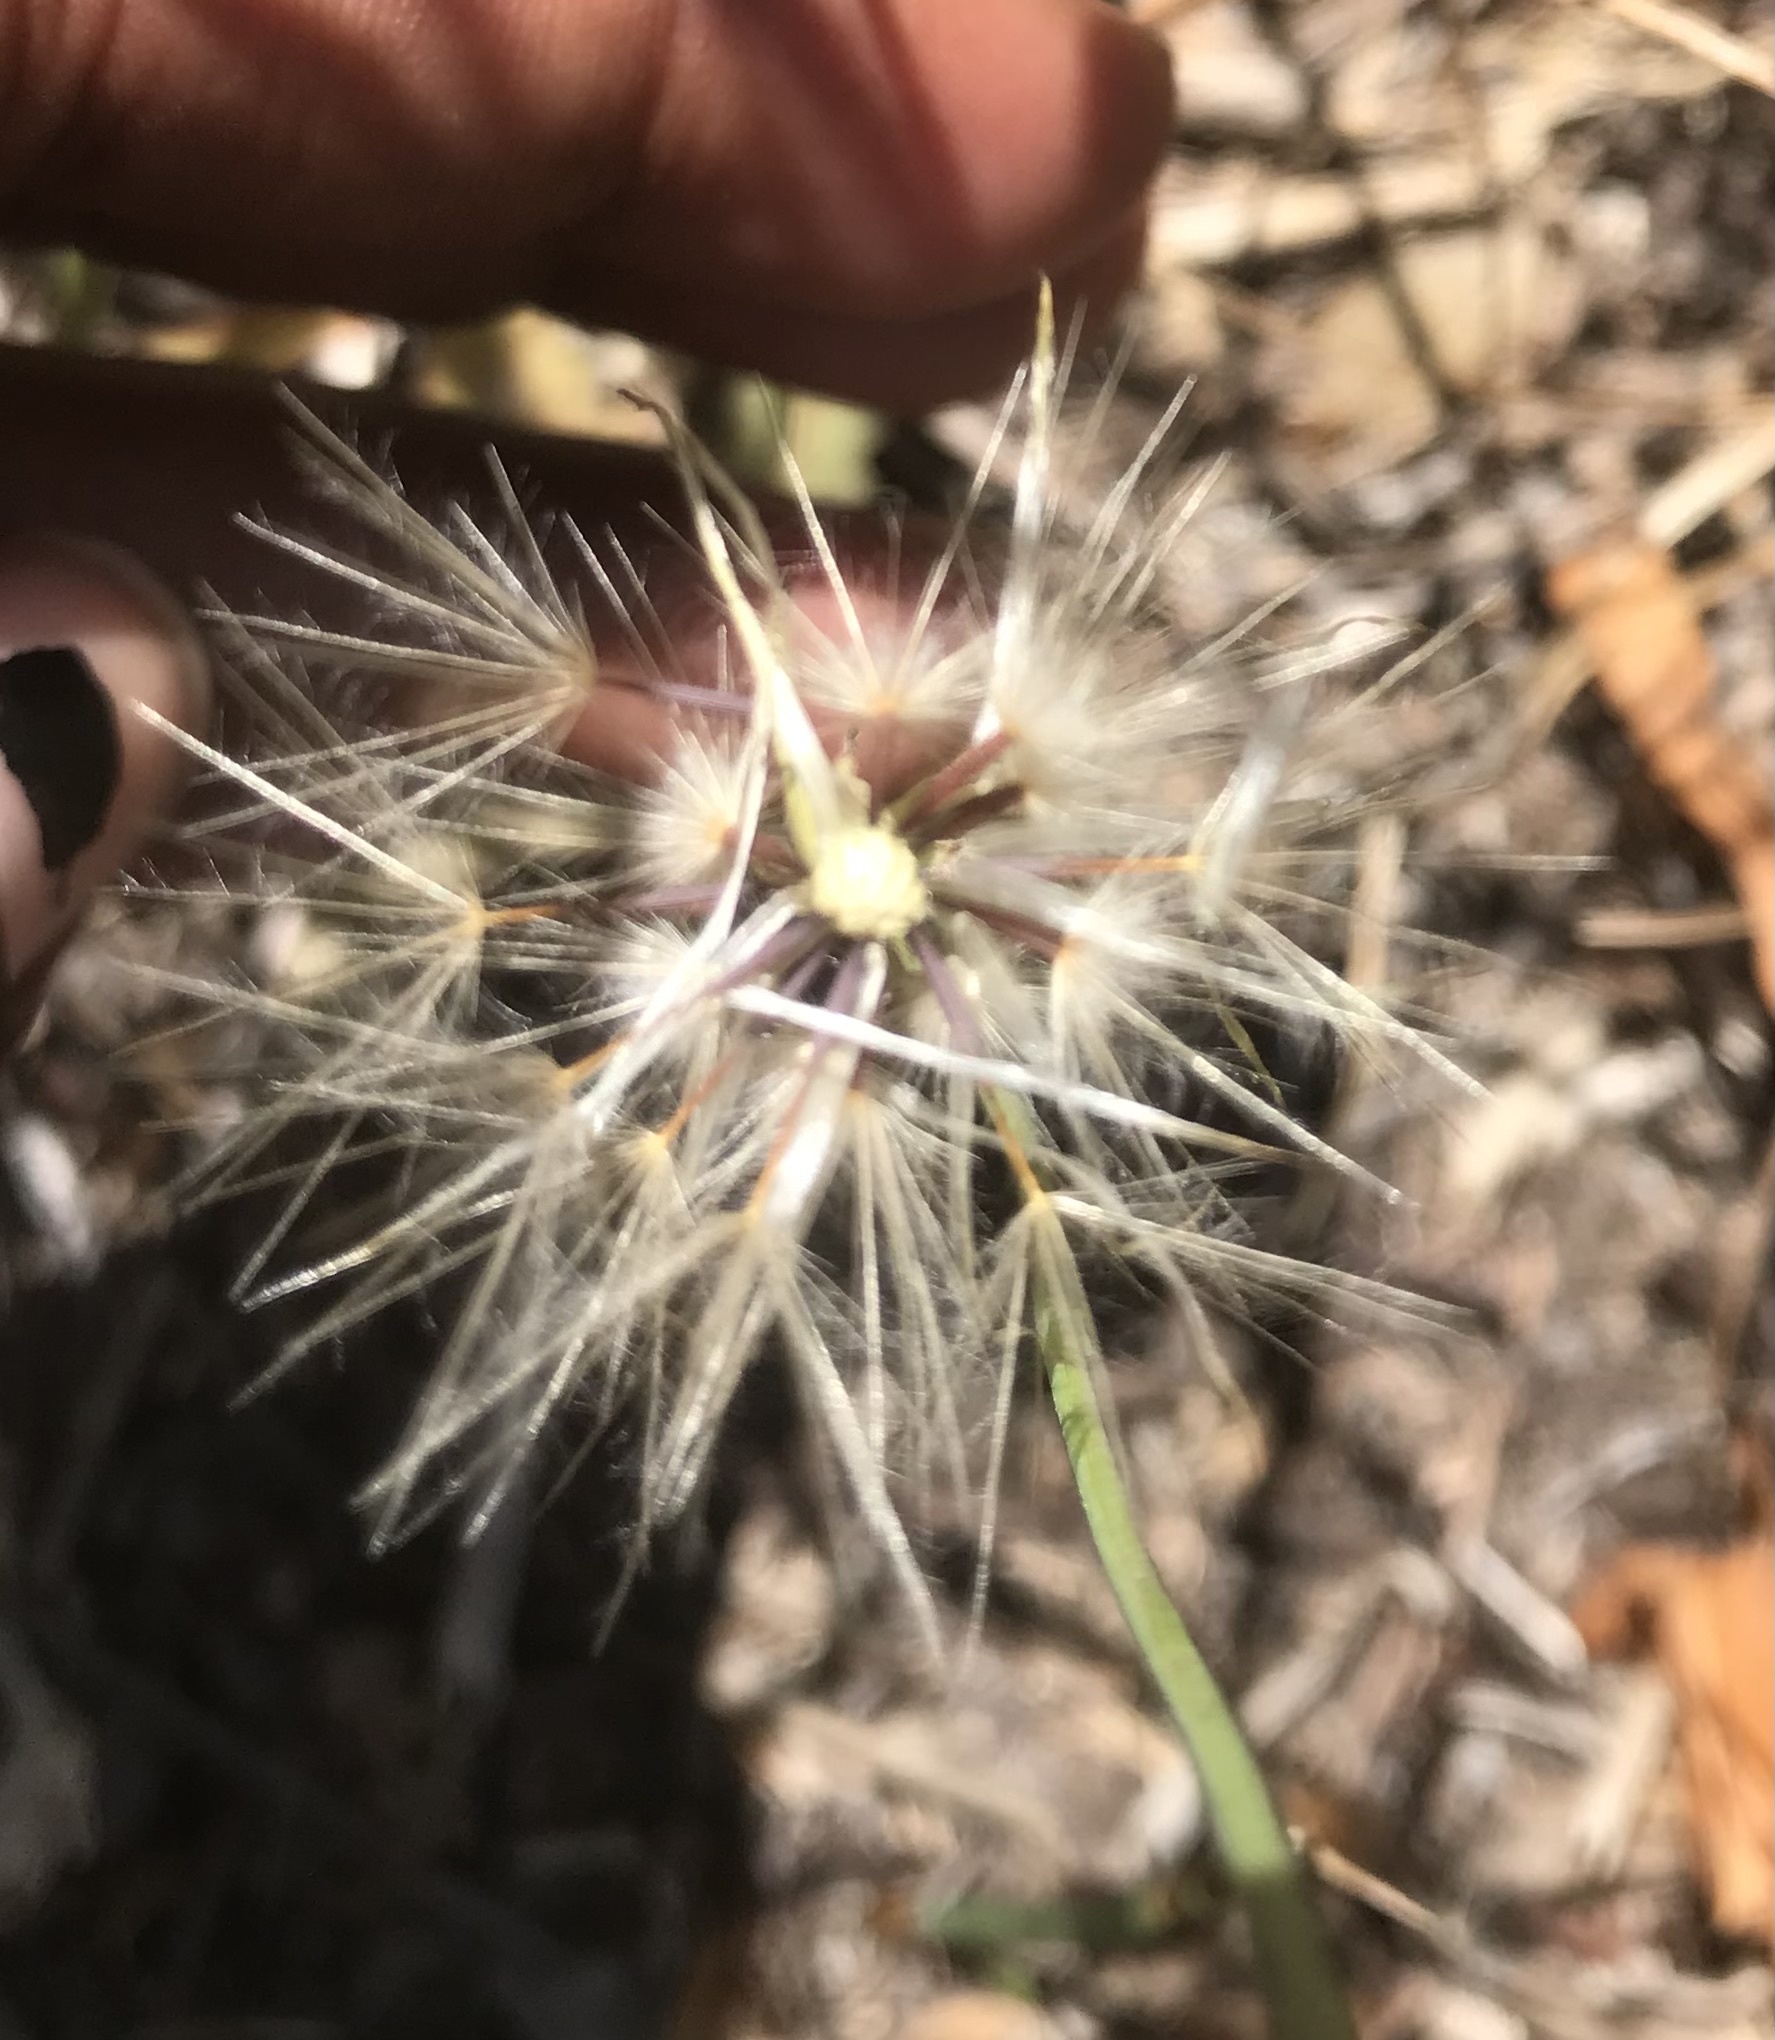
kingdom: Plantae
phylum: Tracheophyta
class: Magnoliopsida
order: Asterales
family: Asteraceae
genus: Hypochaeris
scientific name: Hypochaeris glabra
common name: Smooth catsear
